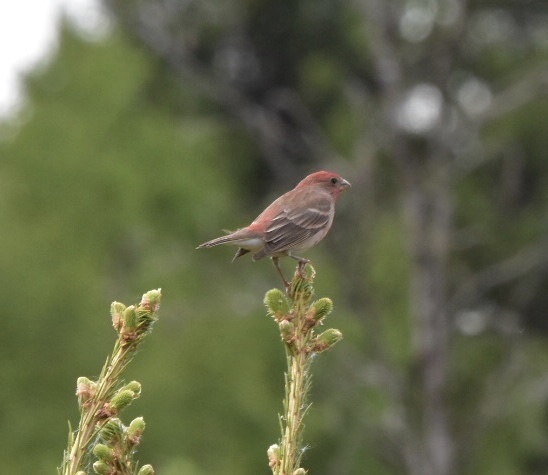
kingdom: Animalia
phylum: Chordata
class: Aves
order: Passeriformes
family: Fringillidae
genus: Pinicola
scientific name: Pinicola enucleator
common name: Pine grosbeak
